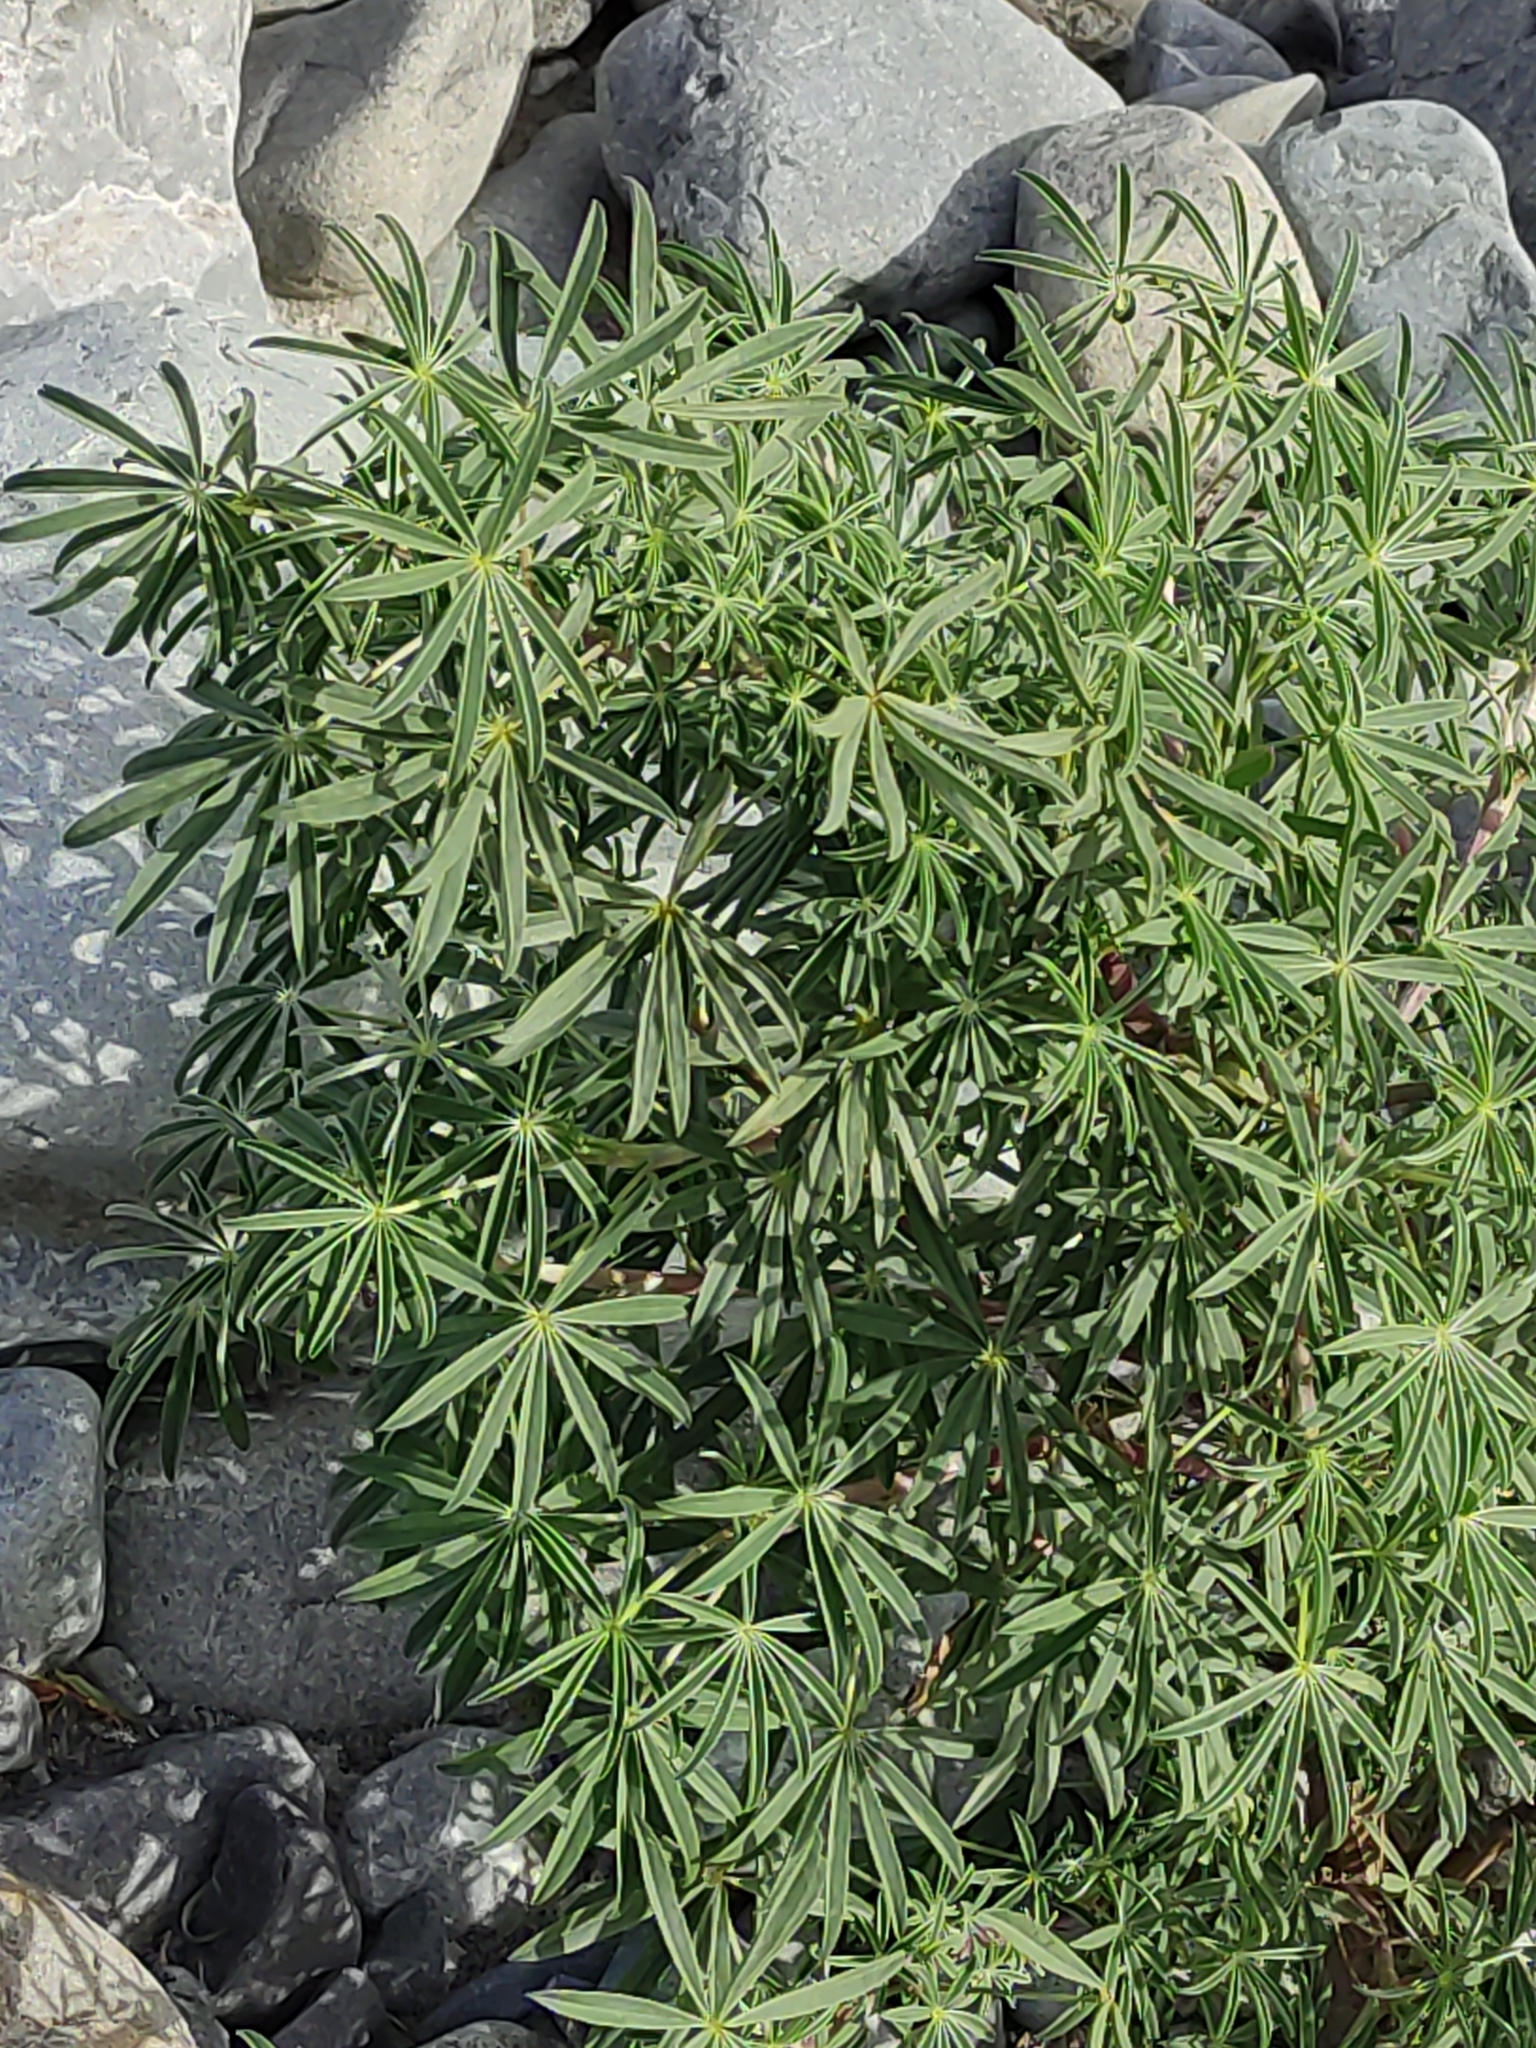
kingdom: Plantae
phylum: Tracheophyta
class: Magnoliopsida
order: Fabales
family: Fabaceae
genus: Lupinus
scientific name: Lupinus arboreus
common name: Yellow bush lupine
